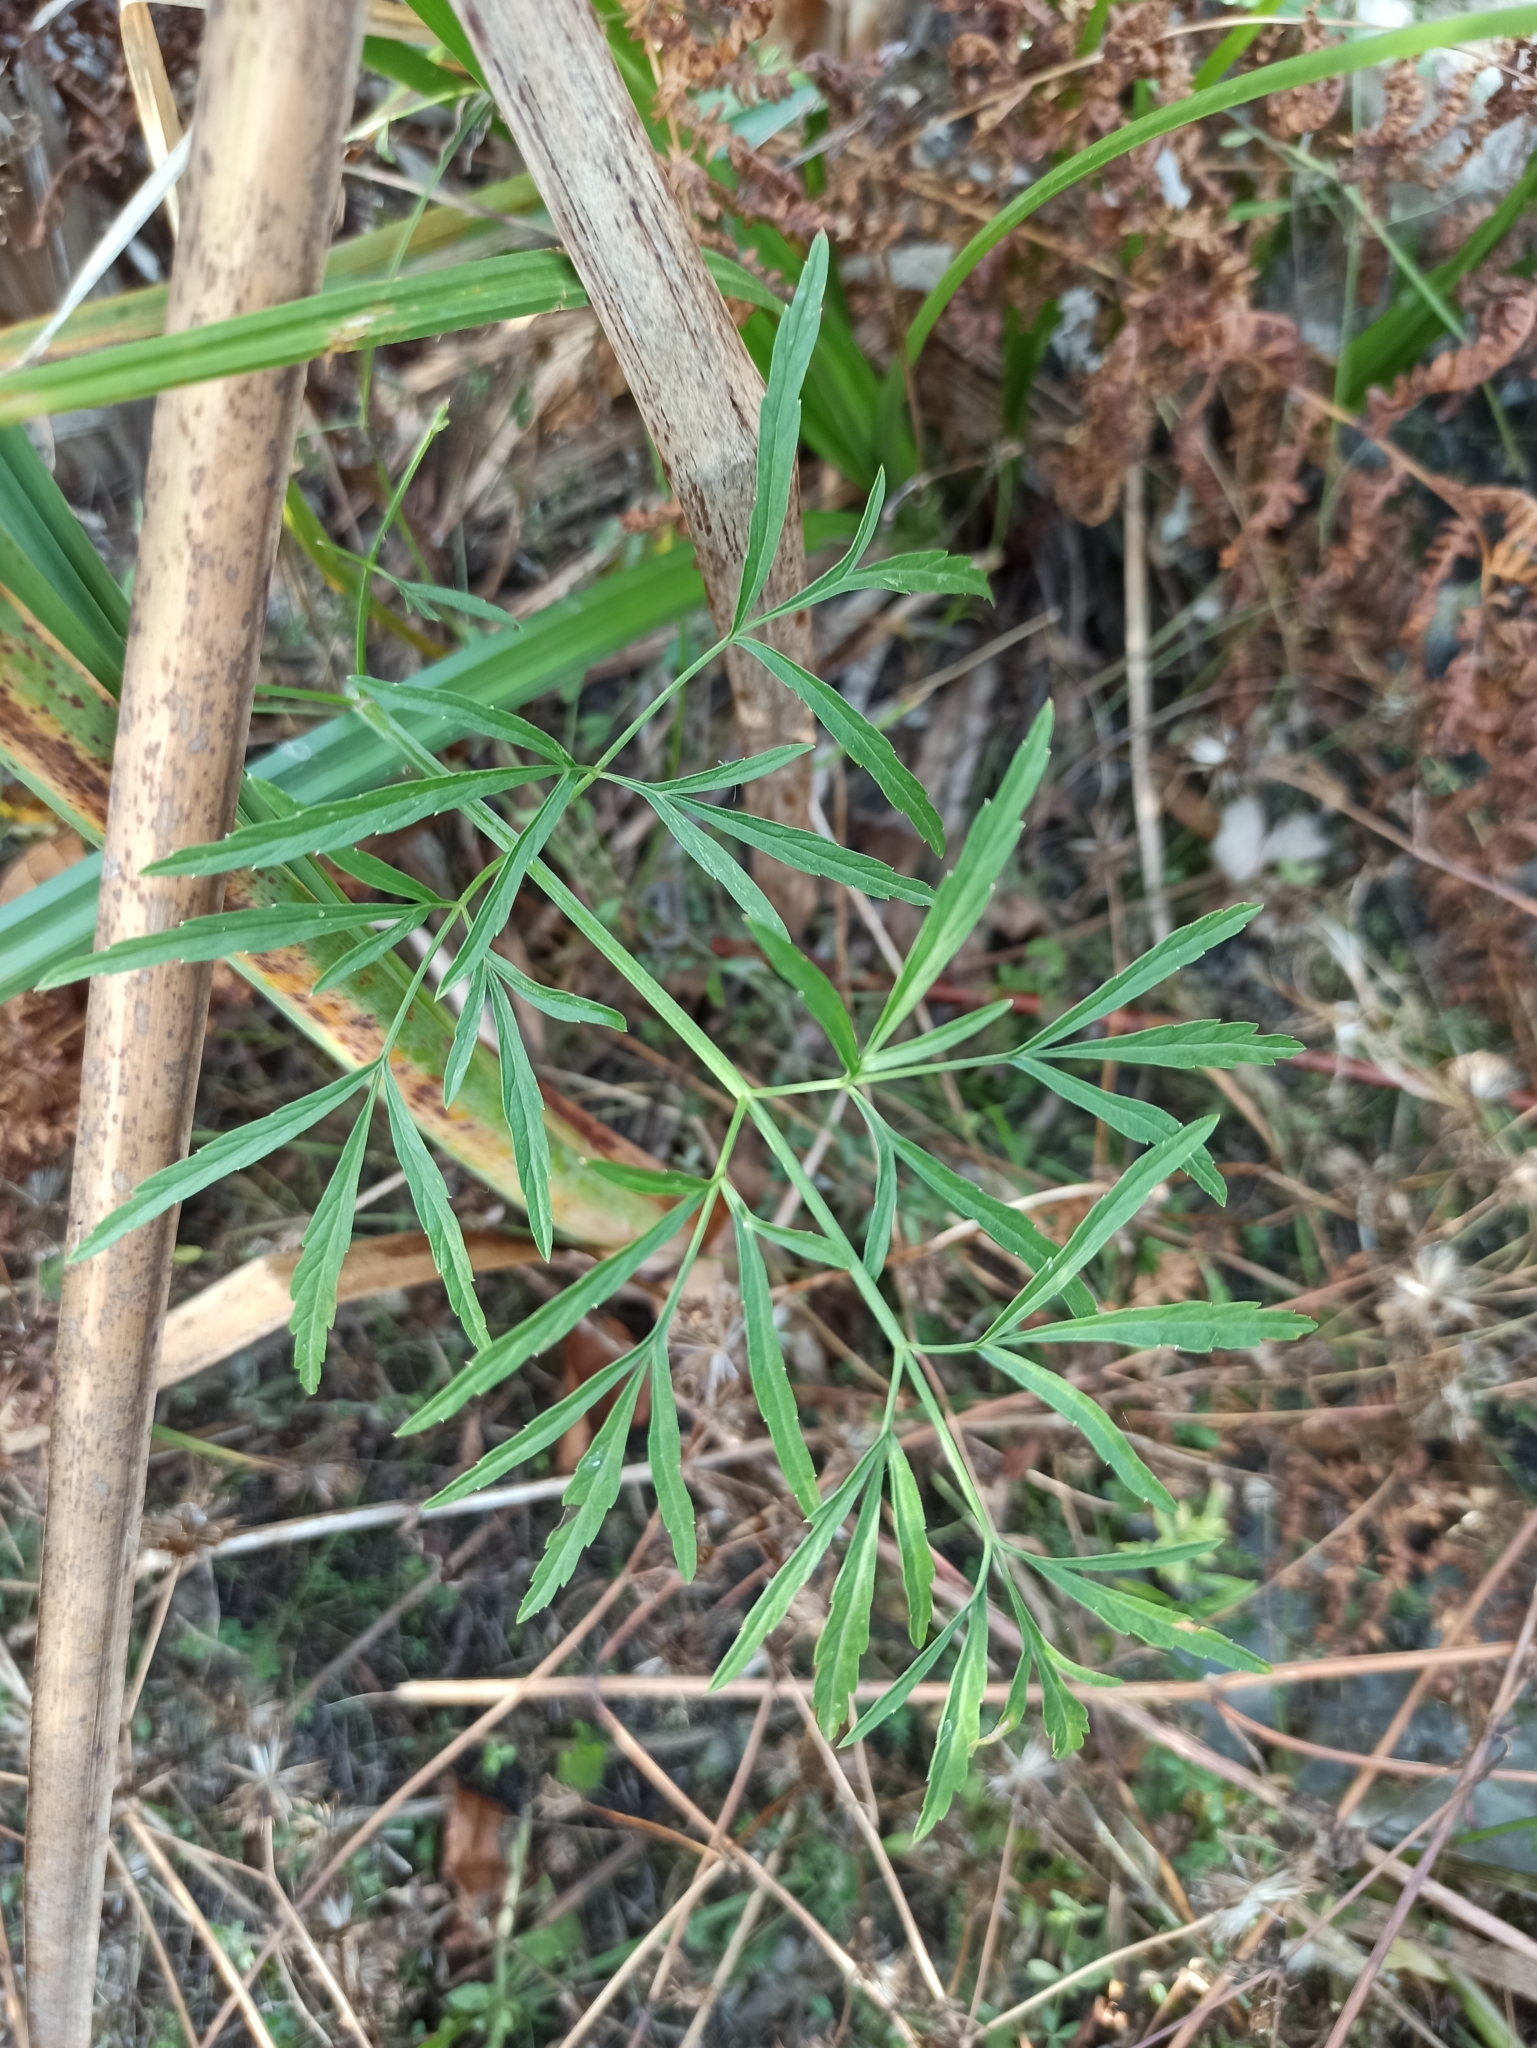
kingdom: Plantae
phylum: Tracheophyta
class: Magnoliopsida
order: Apiales
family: Apiaceae
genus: Cicuta
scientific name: Cicuta virosa
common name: Cowbane
